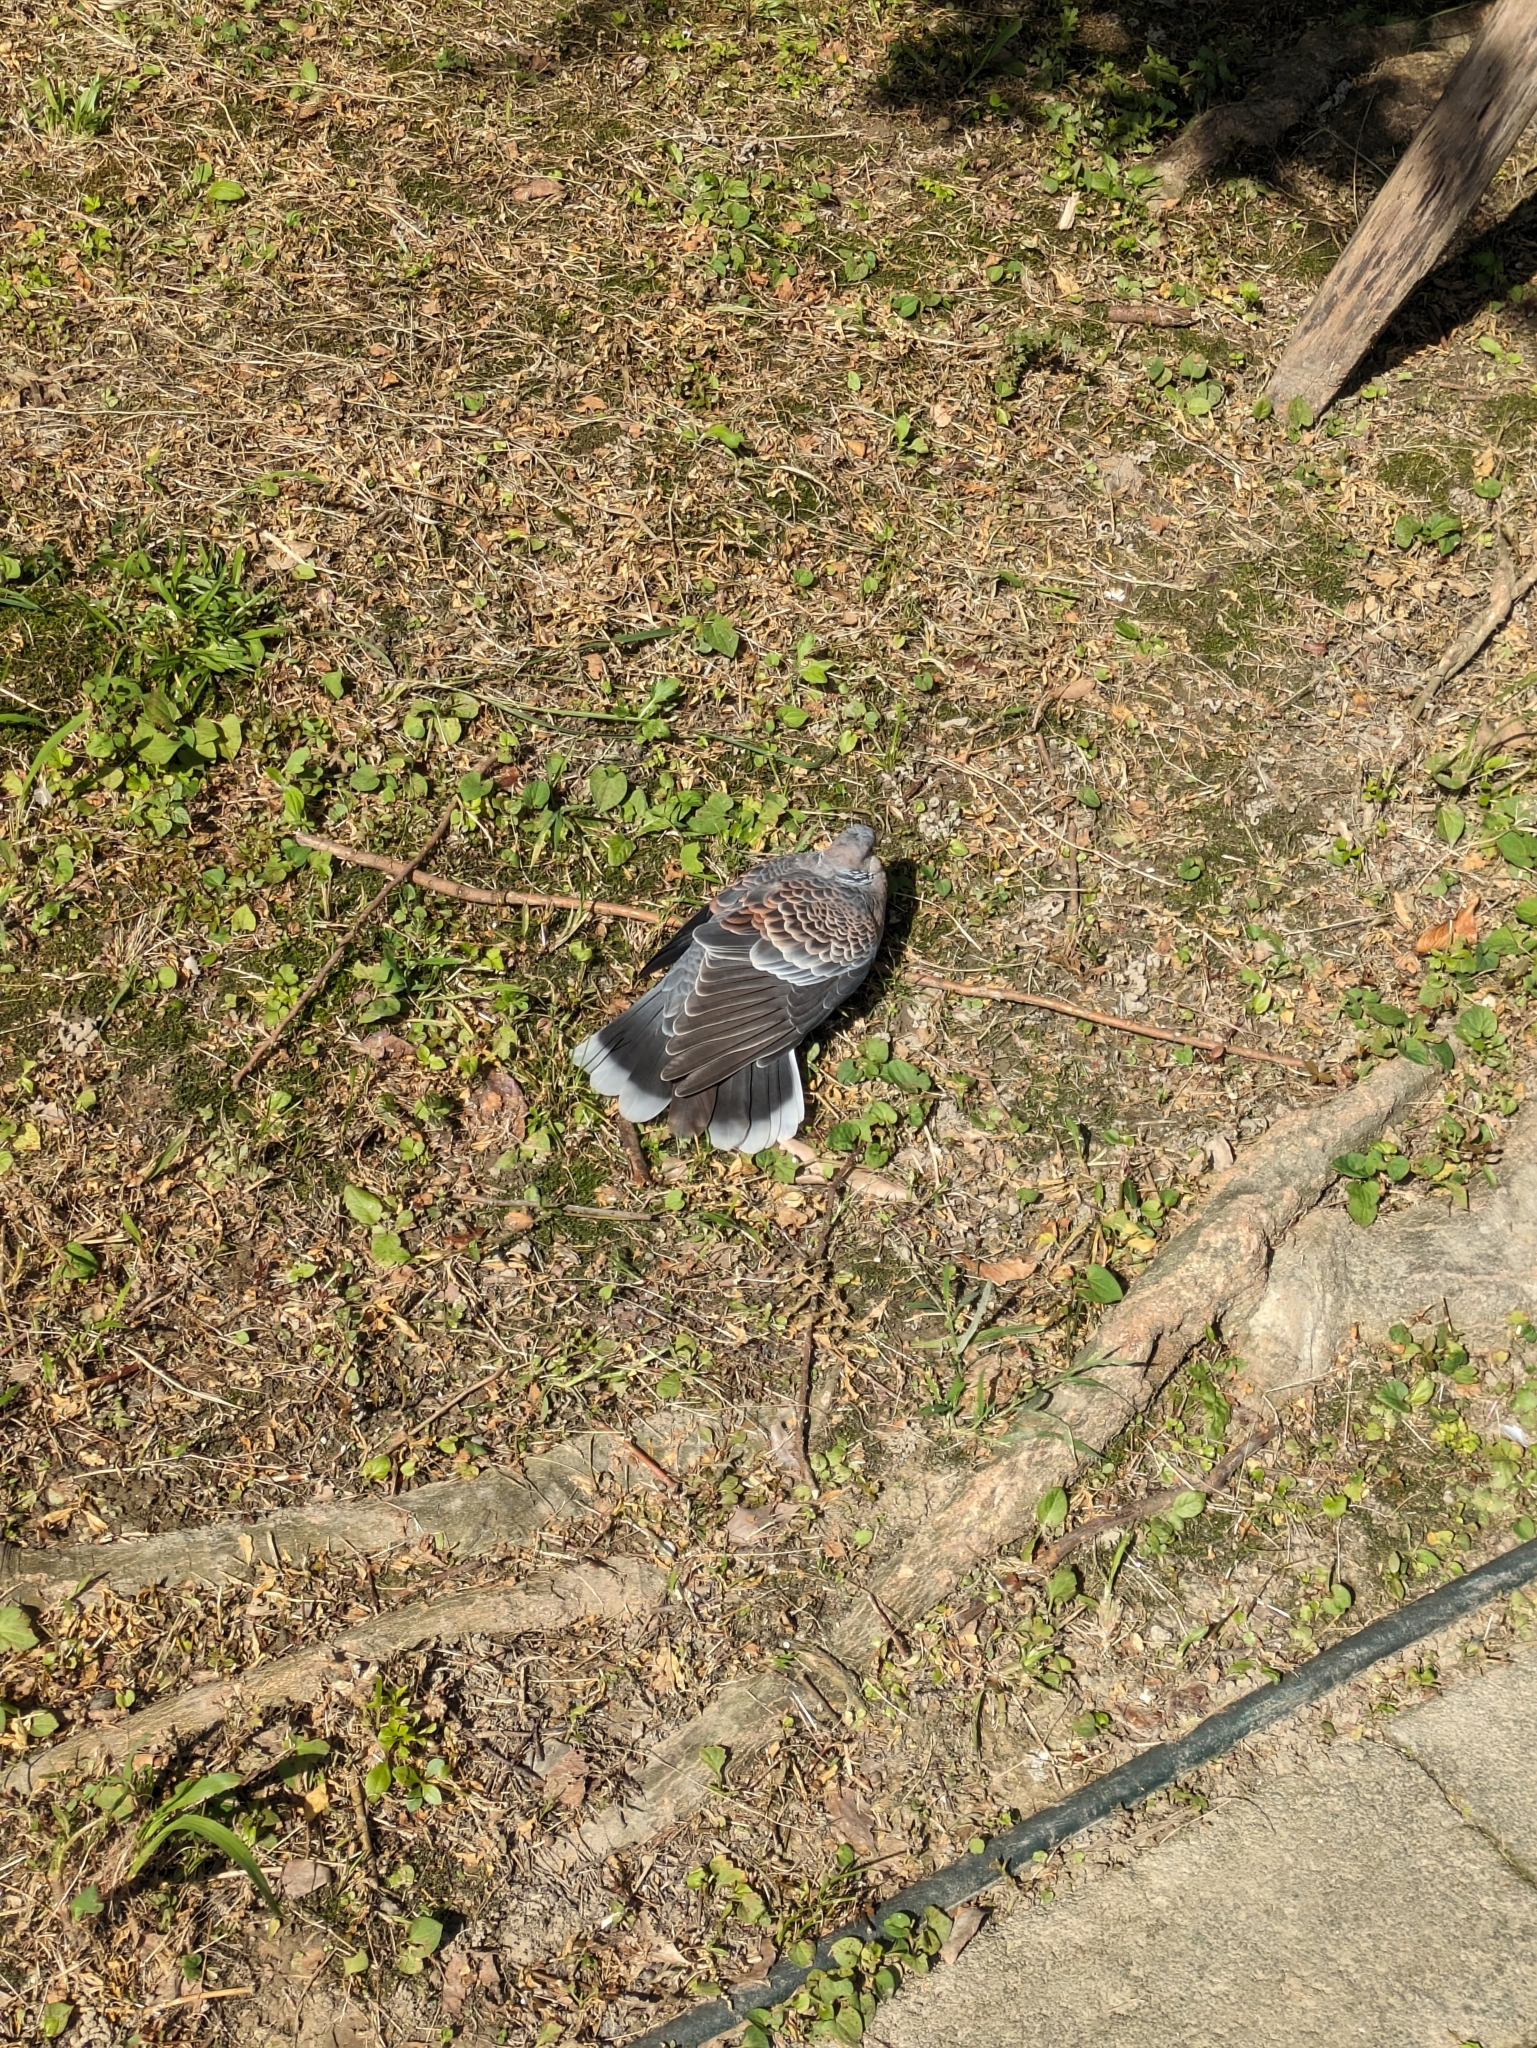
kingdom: Animalia
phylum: Chordata
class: Aves
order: Columbiformes
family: Columbidae
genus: Streptopelia
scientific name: Streptopelia orientalis
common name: Oriental turtle dove
